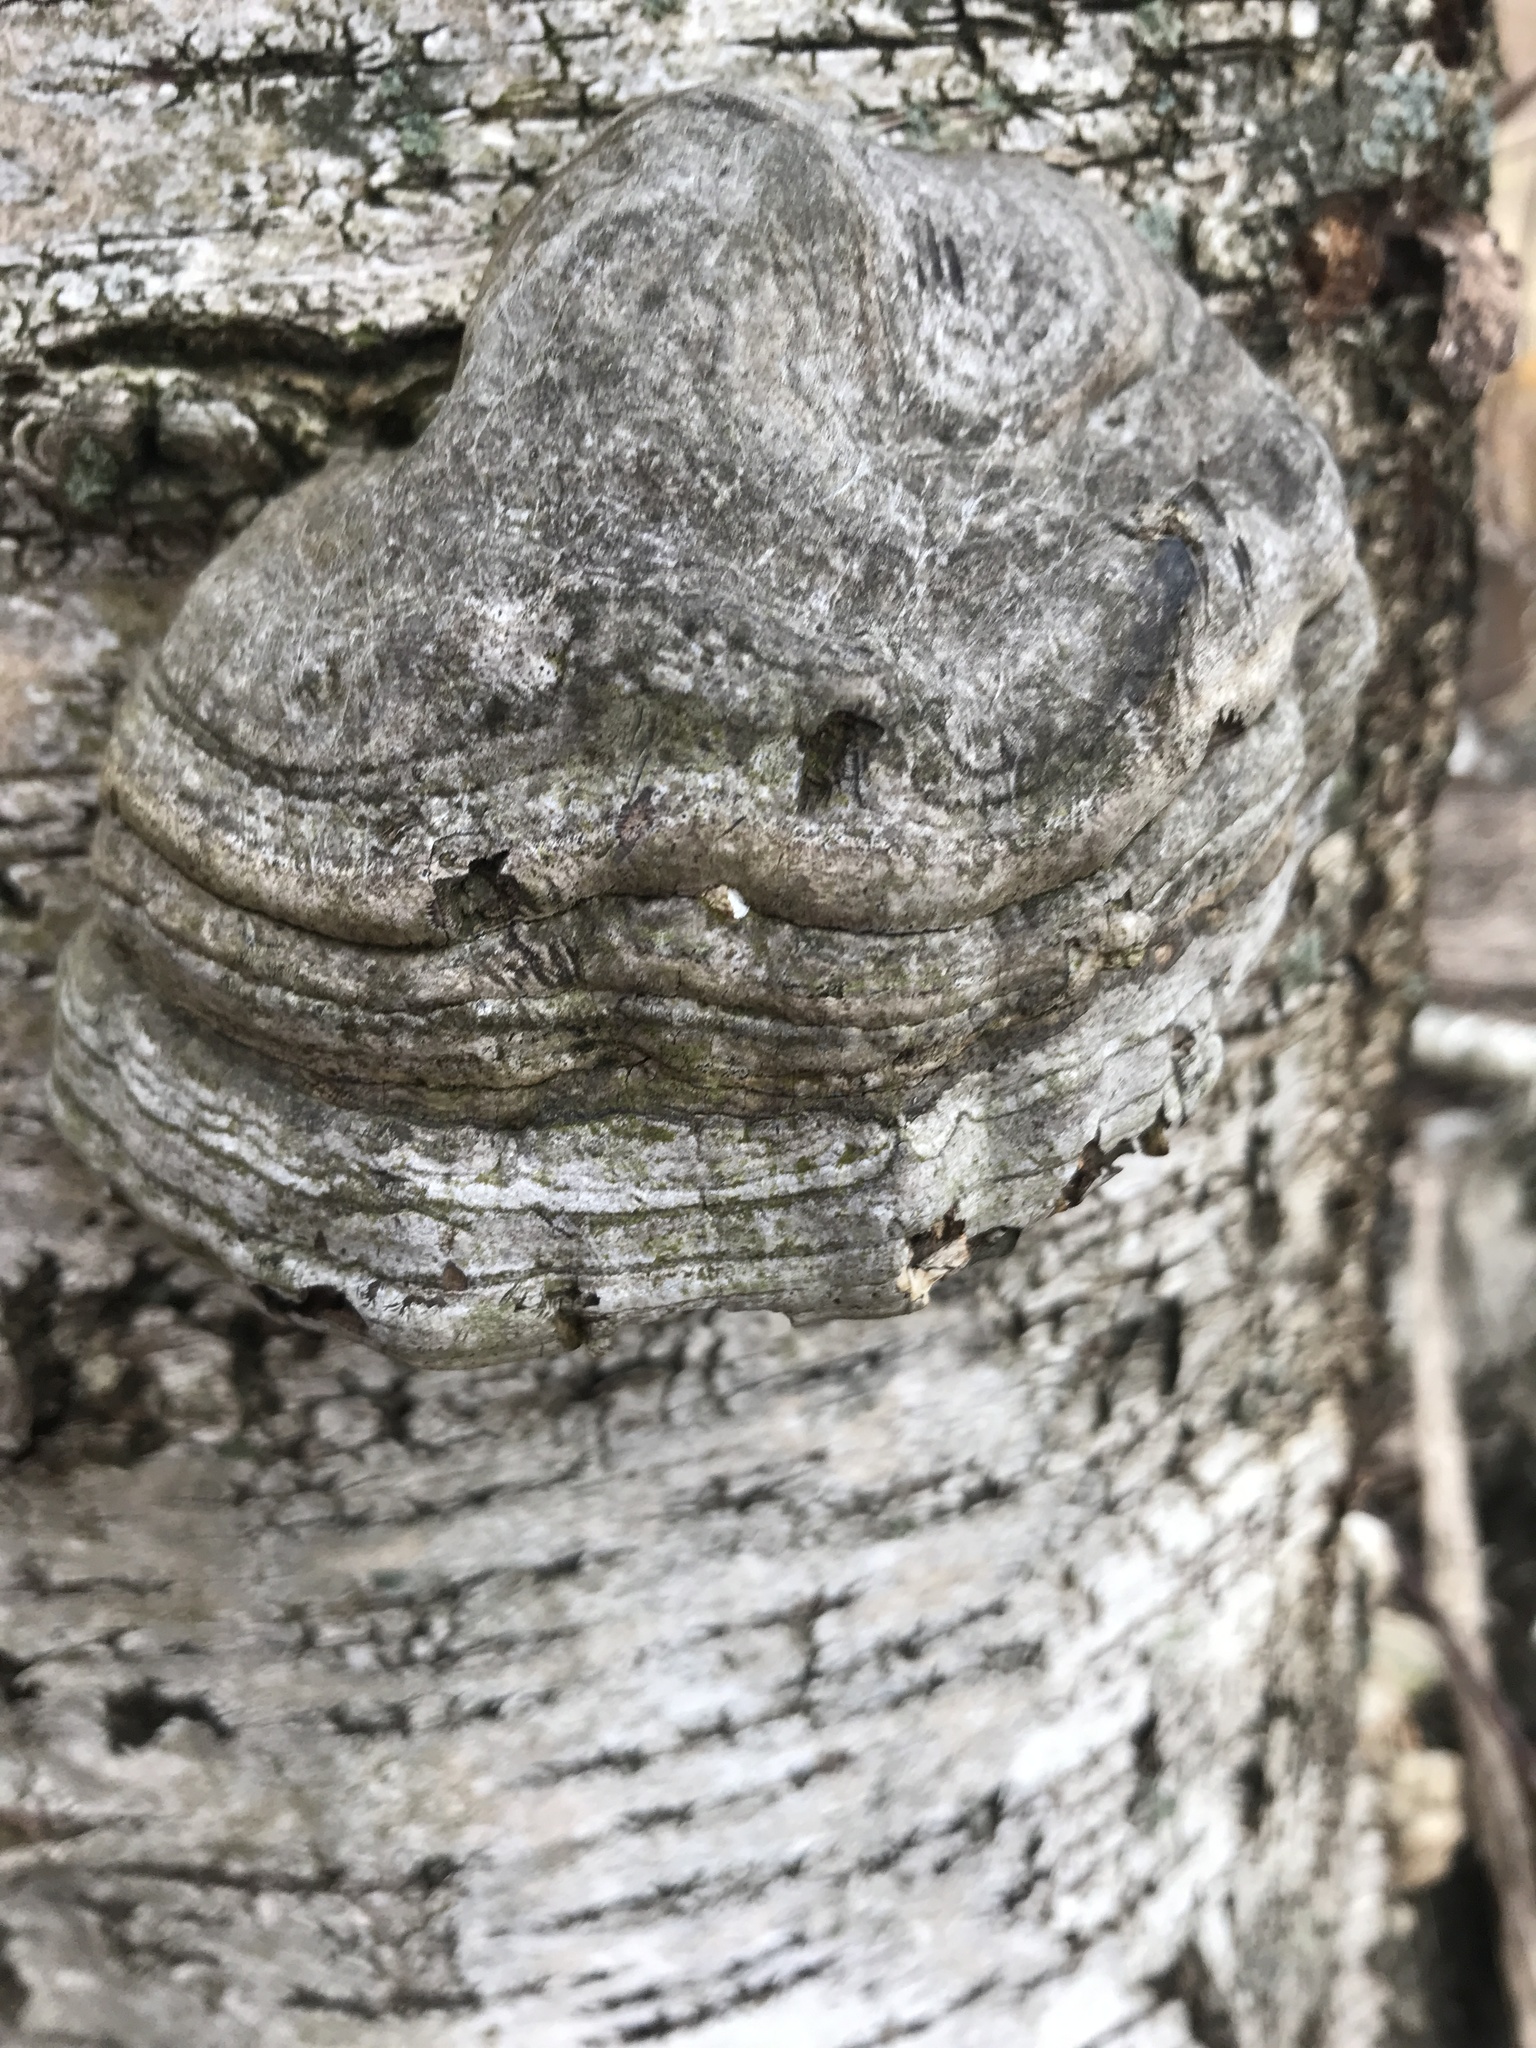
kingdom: Fungi
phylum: Basidiomycota
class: Agaricomycetes
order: Polyporales
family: Polyporaceae
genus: Fomes
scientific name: Fomes fomentarius
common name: Hoof fungus
